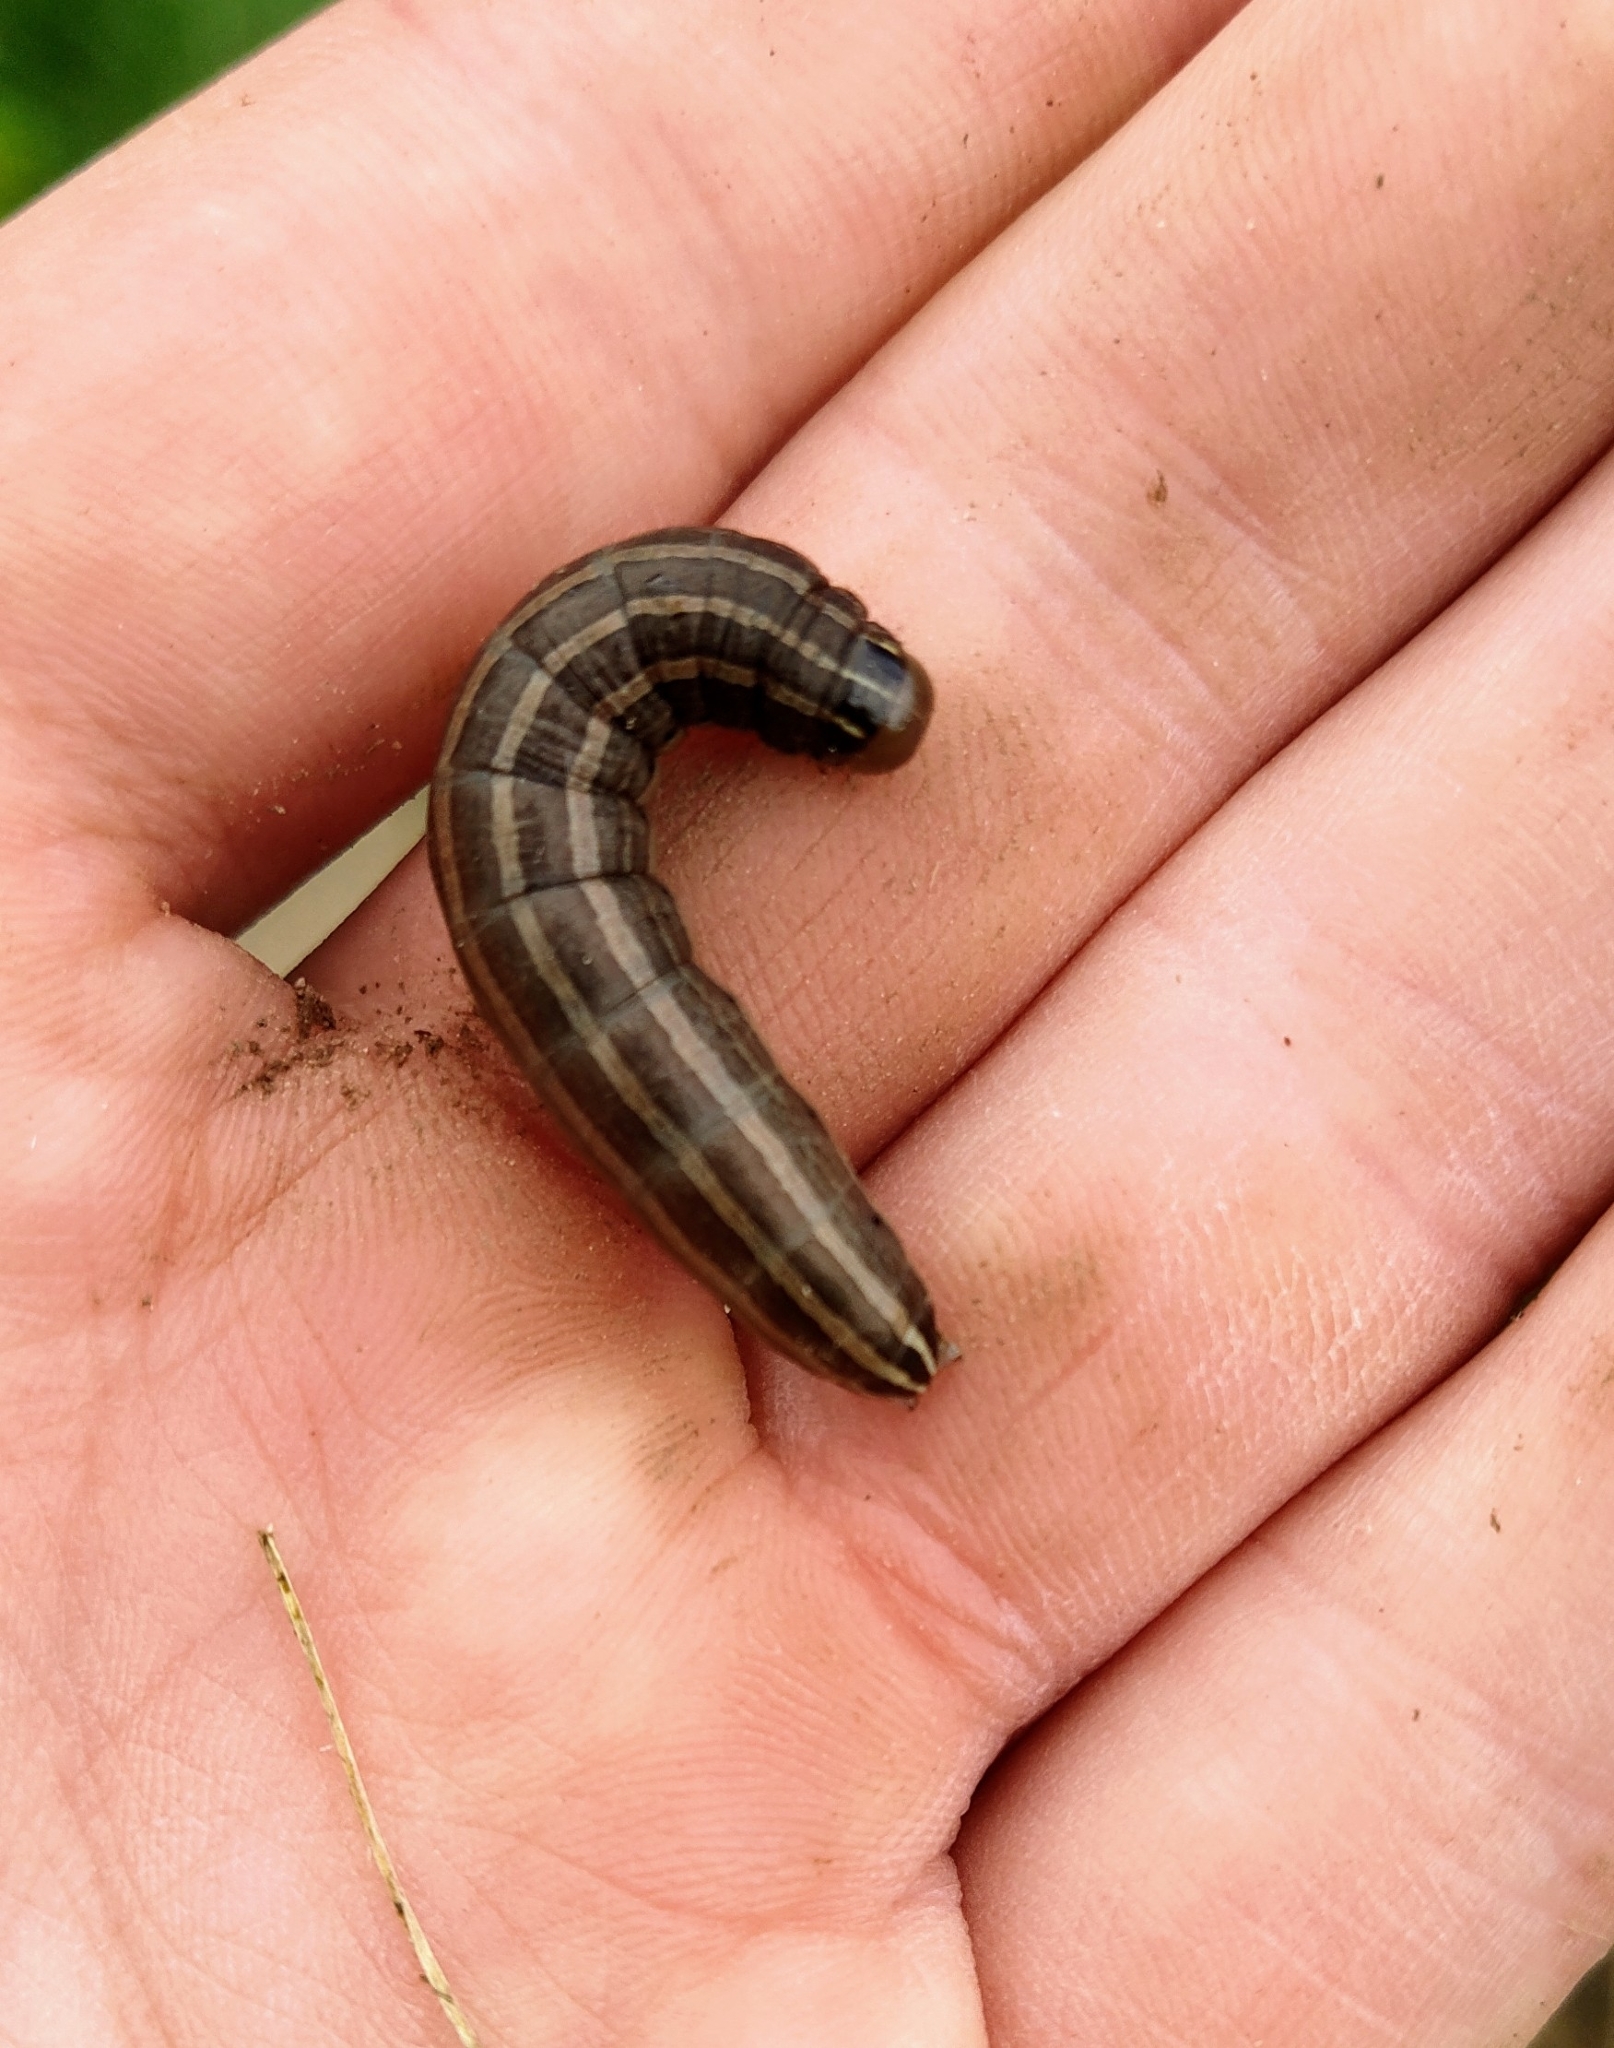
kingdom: Animalia
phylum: Arthropoda
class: Insecta
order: Lepidoptera
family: Noctuidae
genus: Nephelodes
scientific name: Nephelodes minians
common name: Bronzed cutworm
